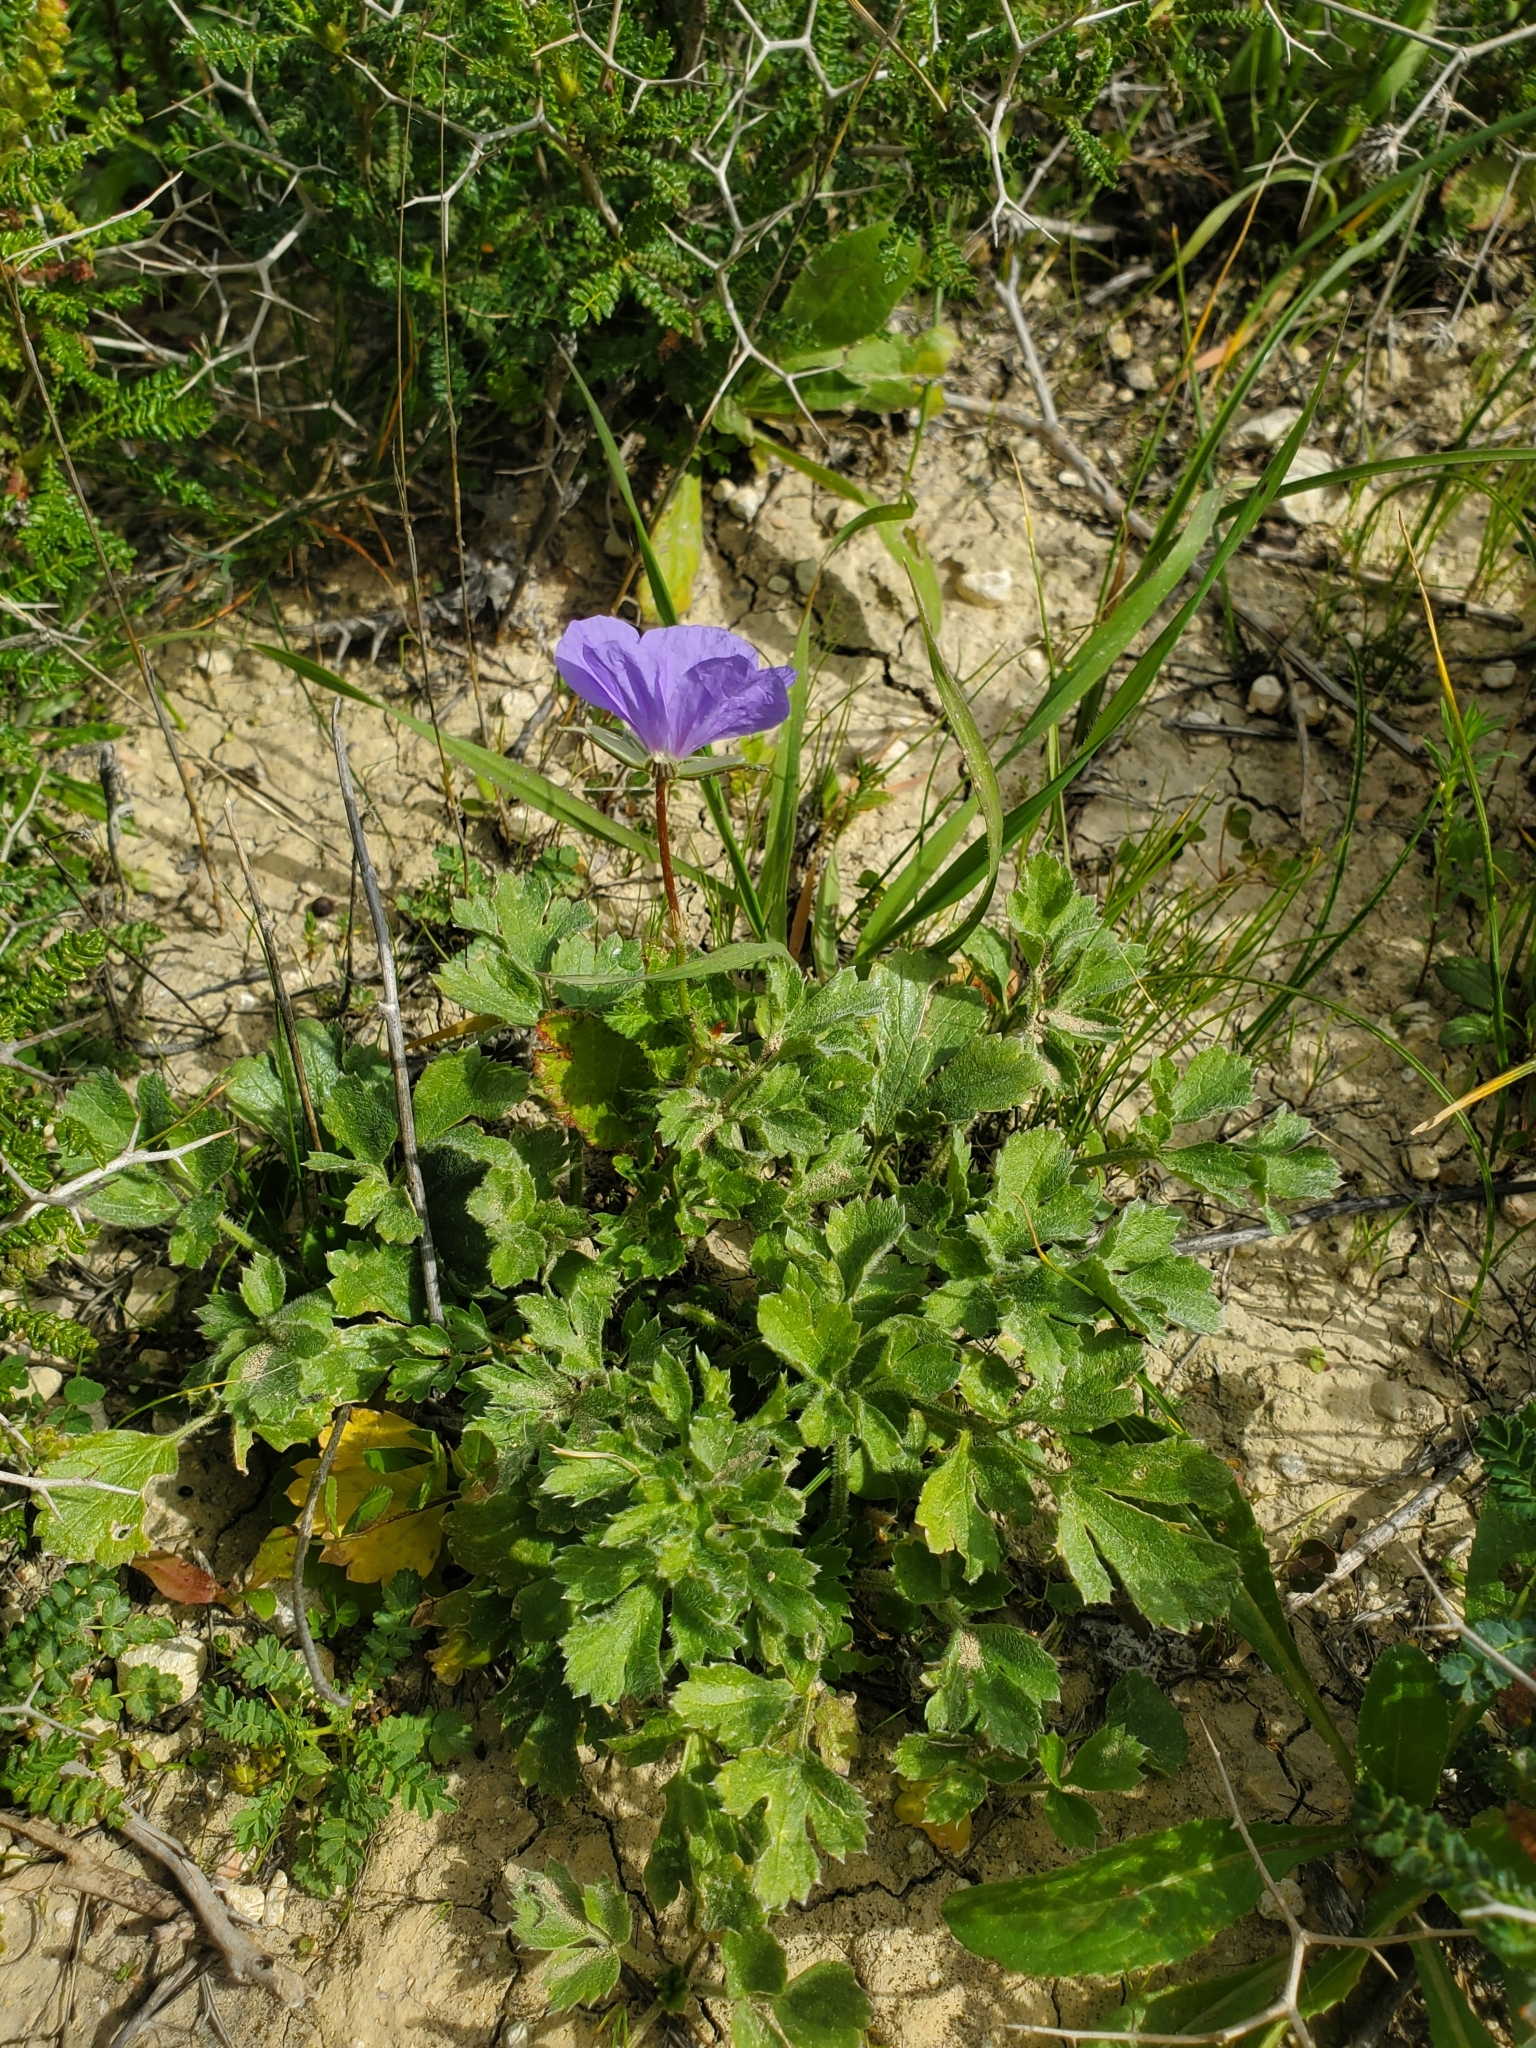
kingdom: Plantae
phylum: Tracheophyta
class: Magnoliopsida
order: Geraniales
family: Geraniaceae
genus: Erodium
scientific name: Erodium gruinum
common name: Iranian stork's bill
